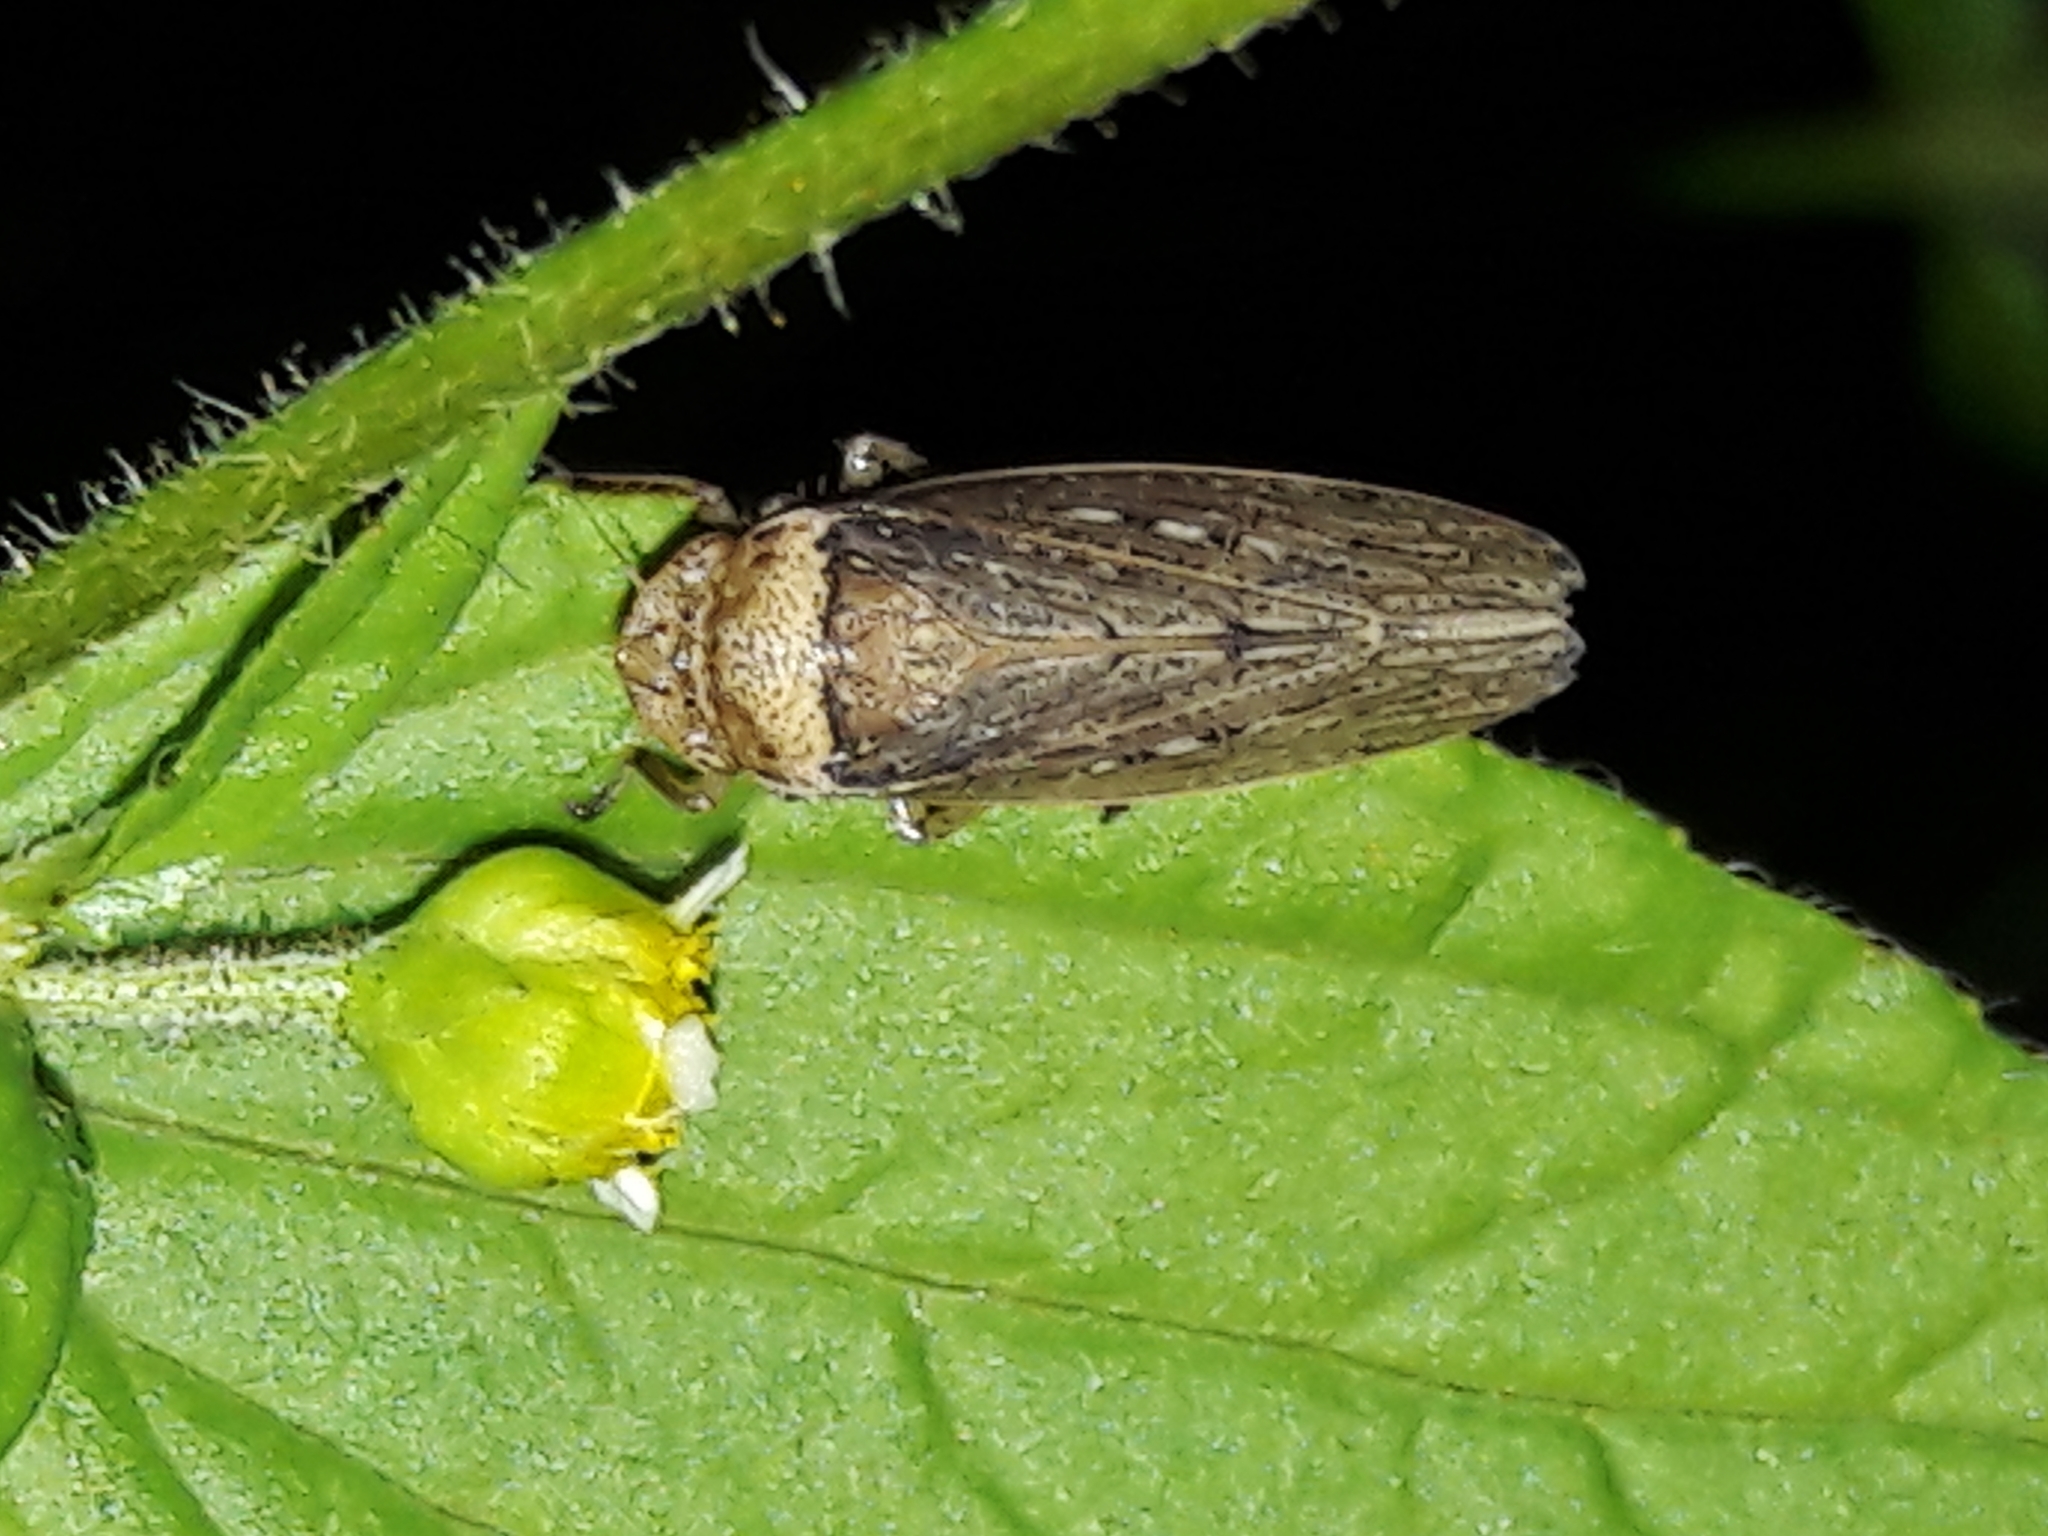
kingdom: Animalia
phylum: Arthropoda
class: Insecta
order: Hemiptera
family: Cicadellidae
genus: Sordana
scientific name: Sordana sordida
